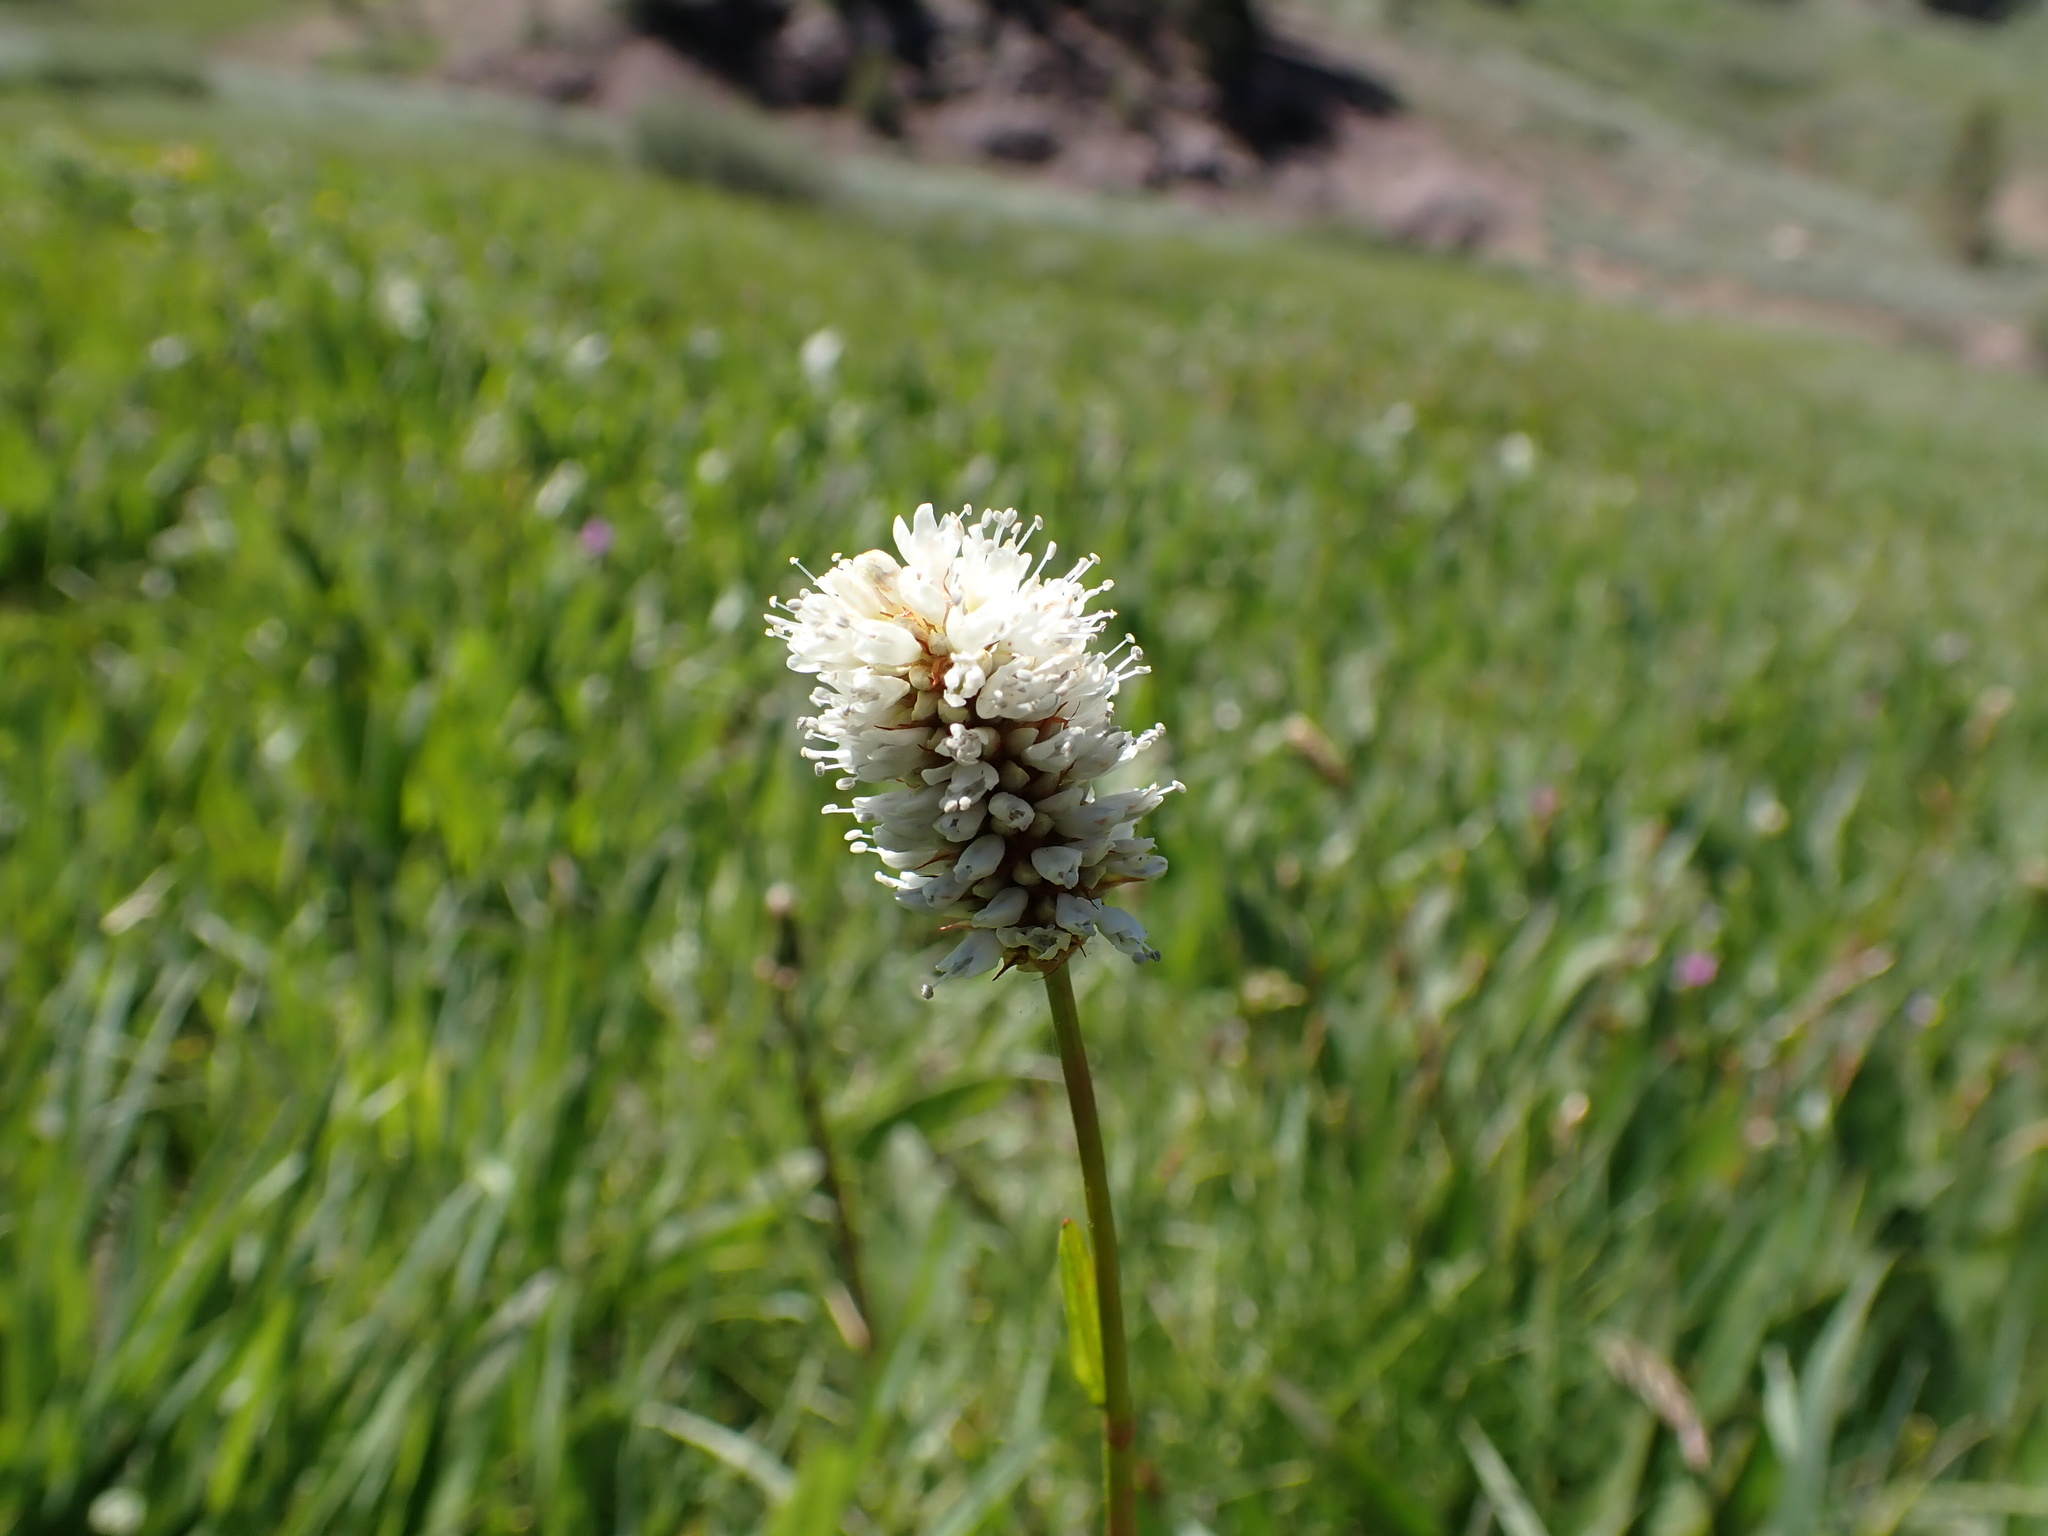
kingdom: Plantae
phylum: Tracheophyta
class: Magnoliopsida
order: Caryophyllales
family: Polygonaceae
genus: Bistorta
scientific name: Bistorta bistortoides
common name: American bistort
